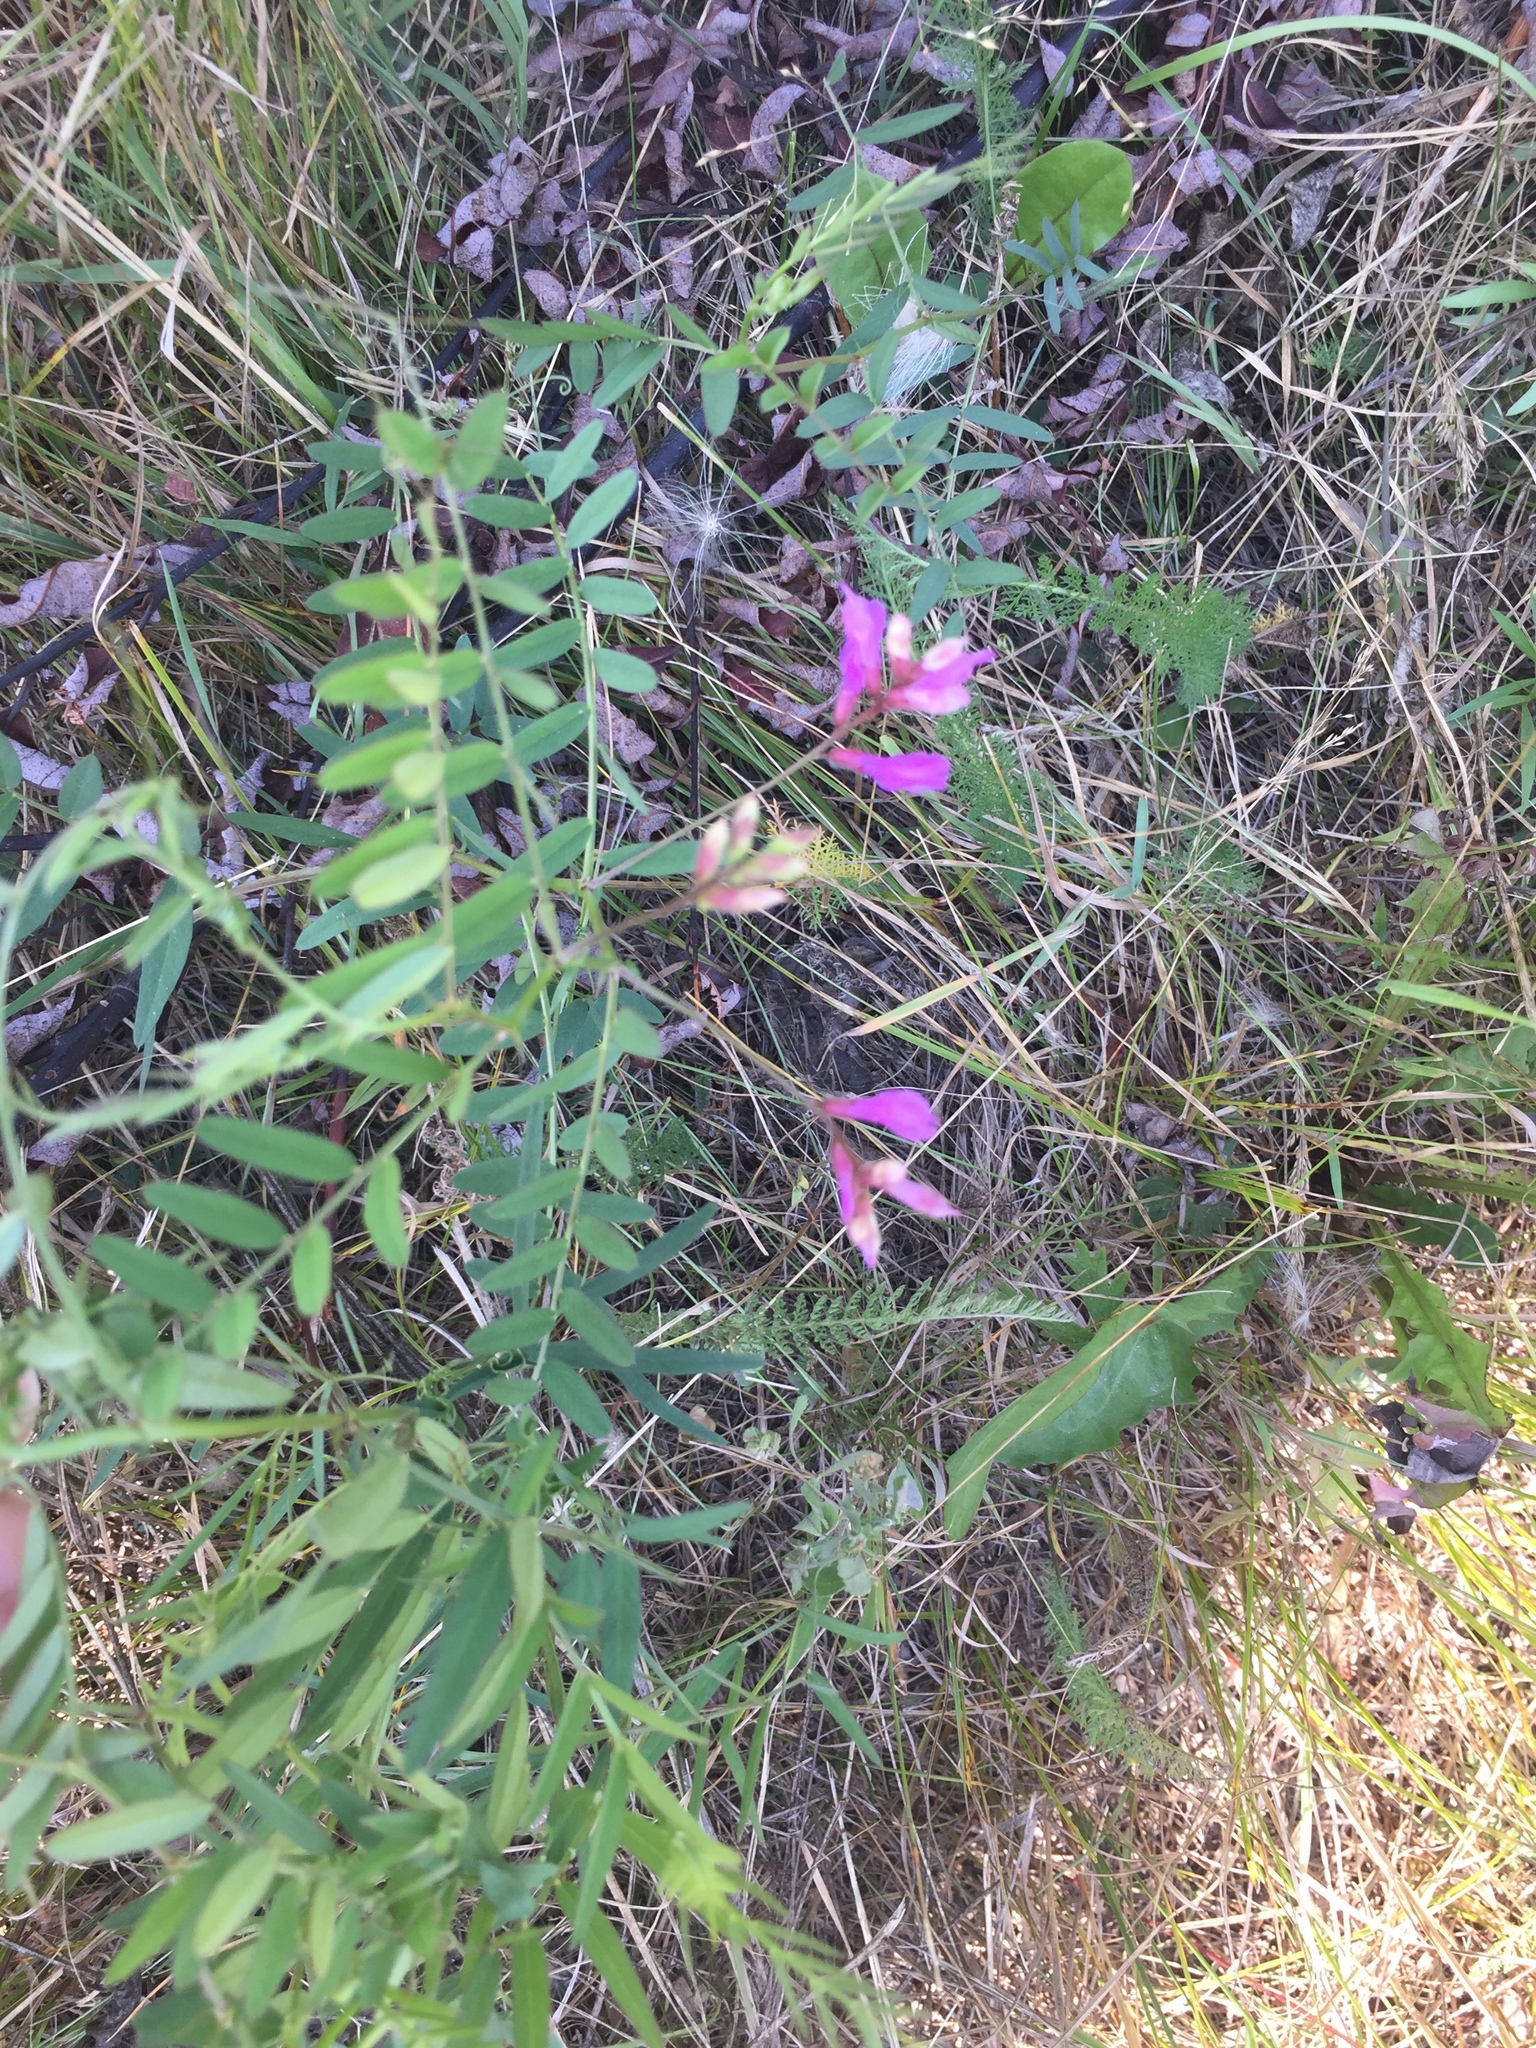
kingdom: Plantae
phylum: Tracheophyta
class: Magnoliopsida
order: Fabales
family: Fabaceae
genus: Vicia
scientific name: Vicia americana
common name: American vetch
